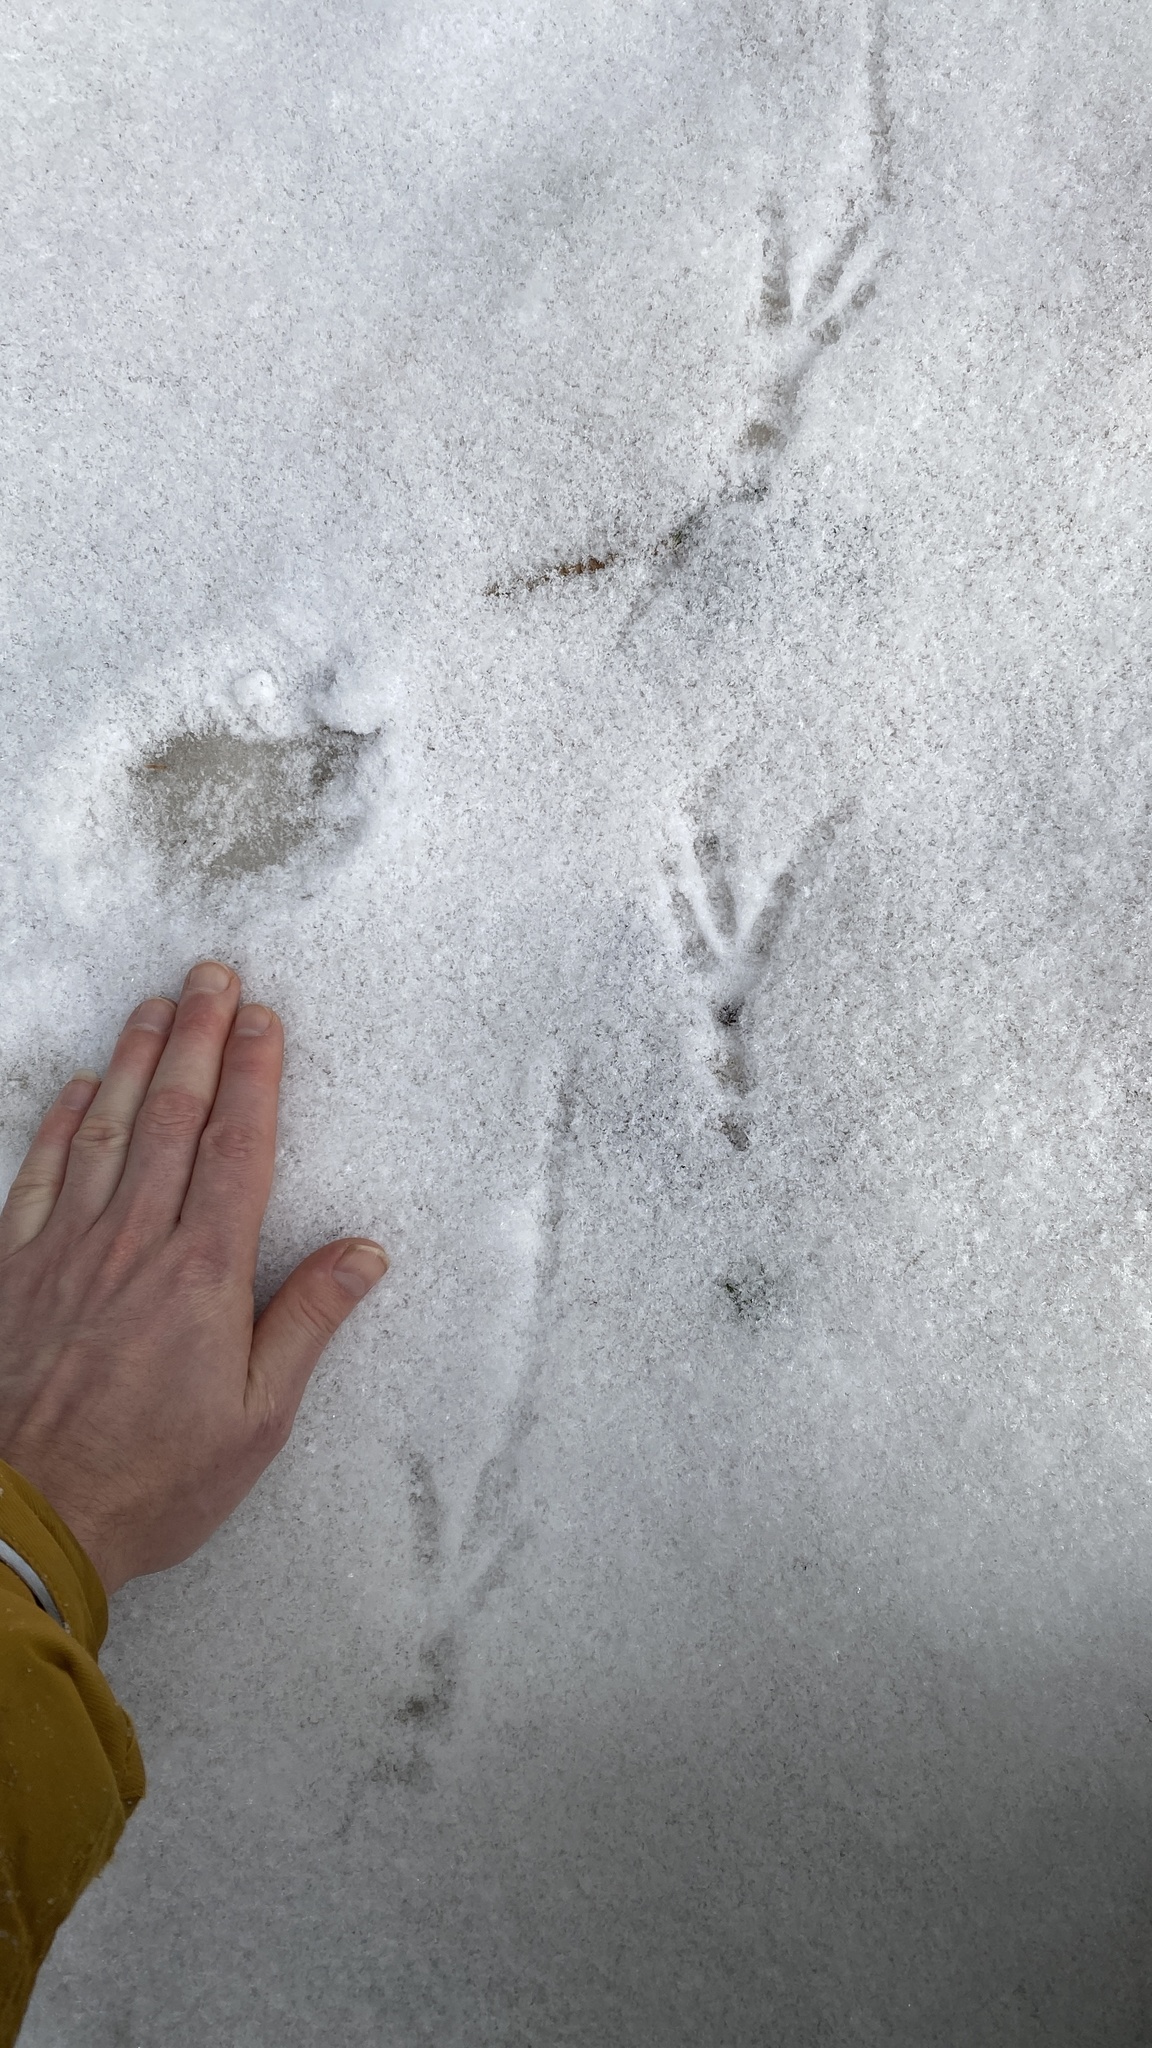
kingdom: Animalia
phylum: Chordata
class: Aves
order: Passeriformes
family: Corvidae
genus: Corvus
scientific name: Corvus corax
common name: Common raven
